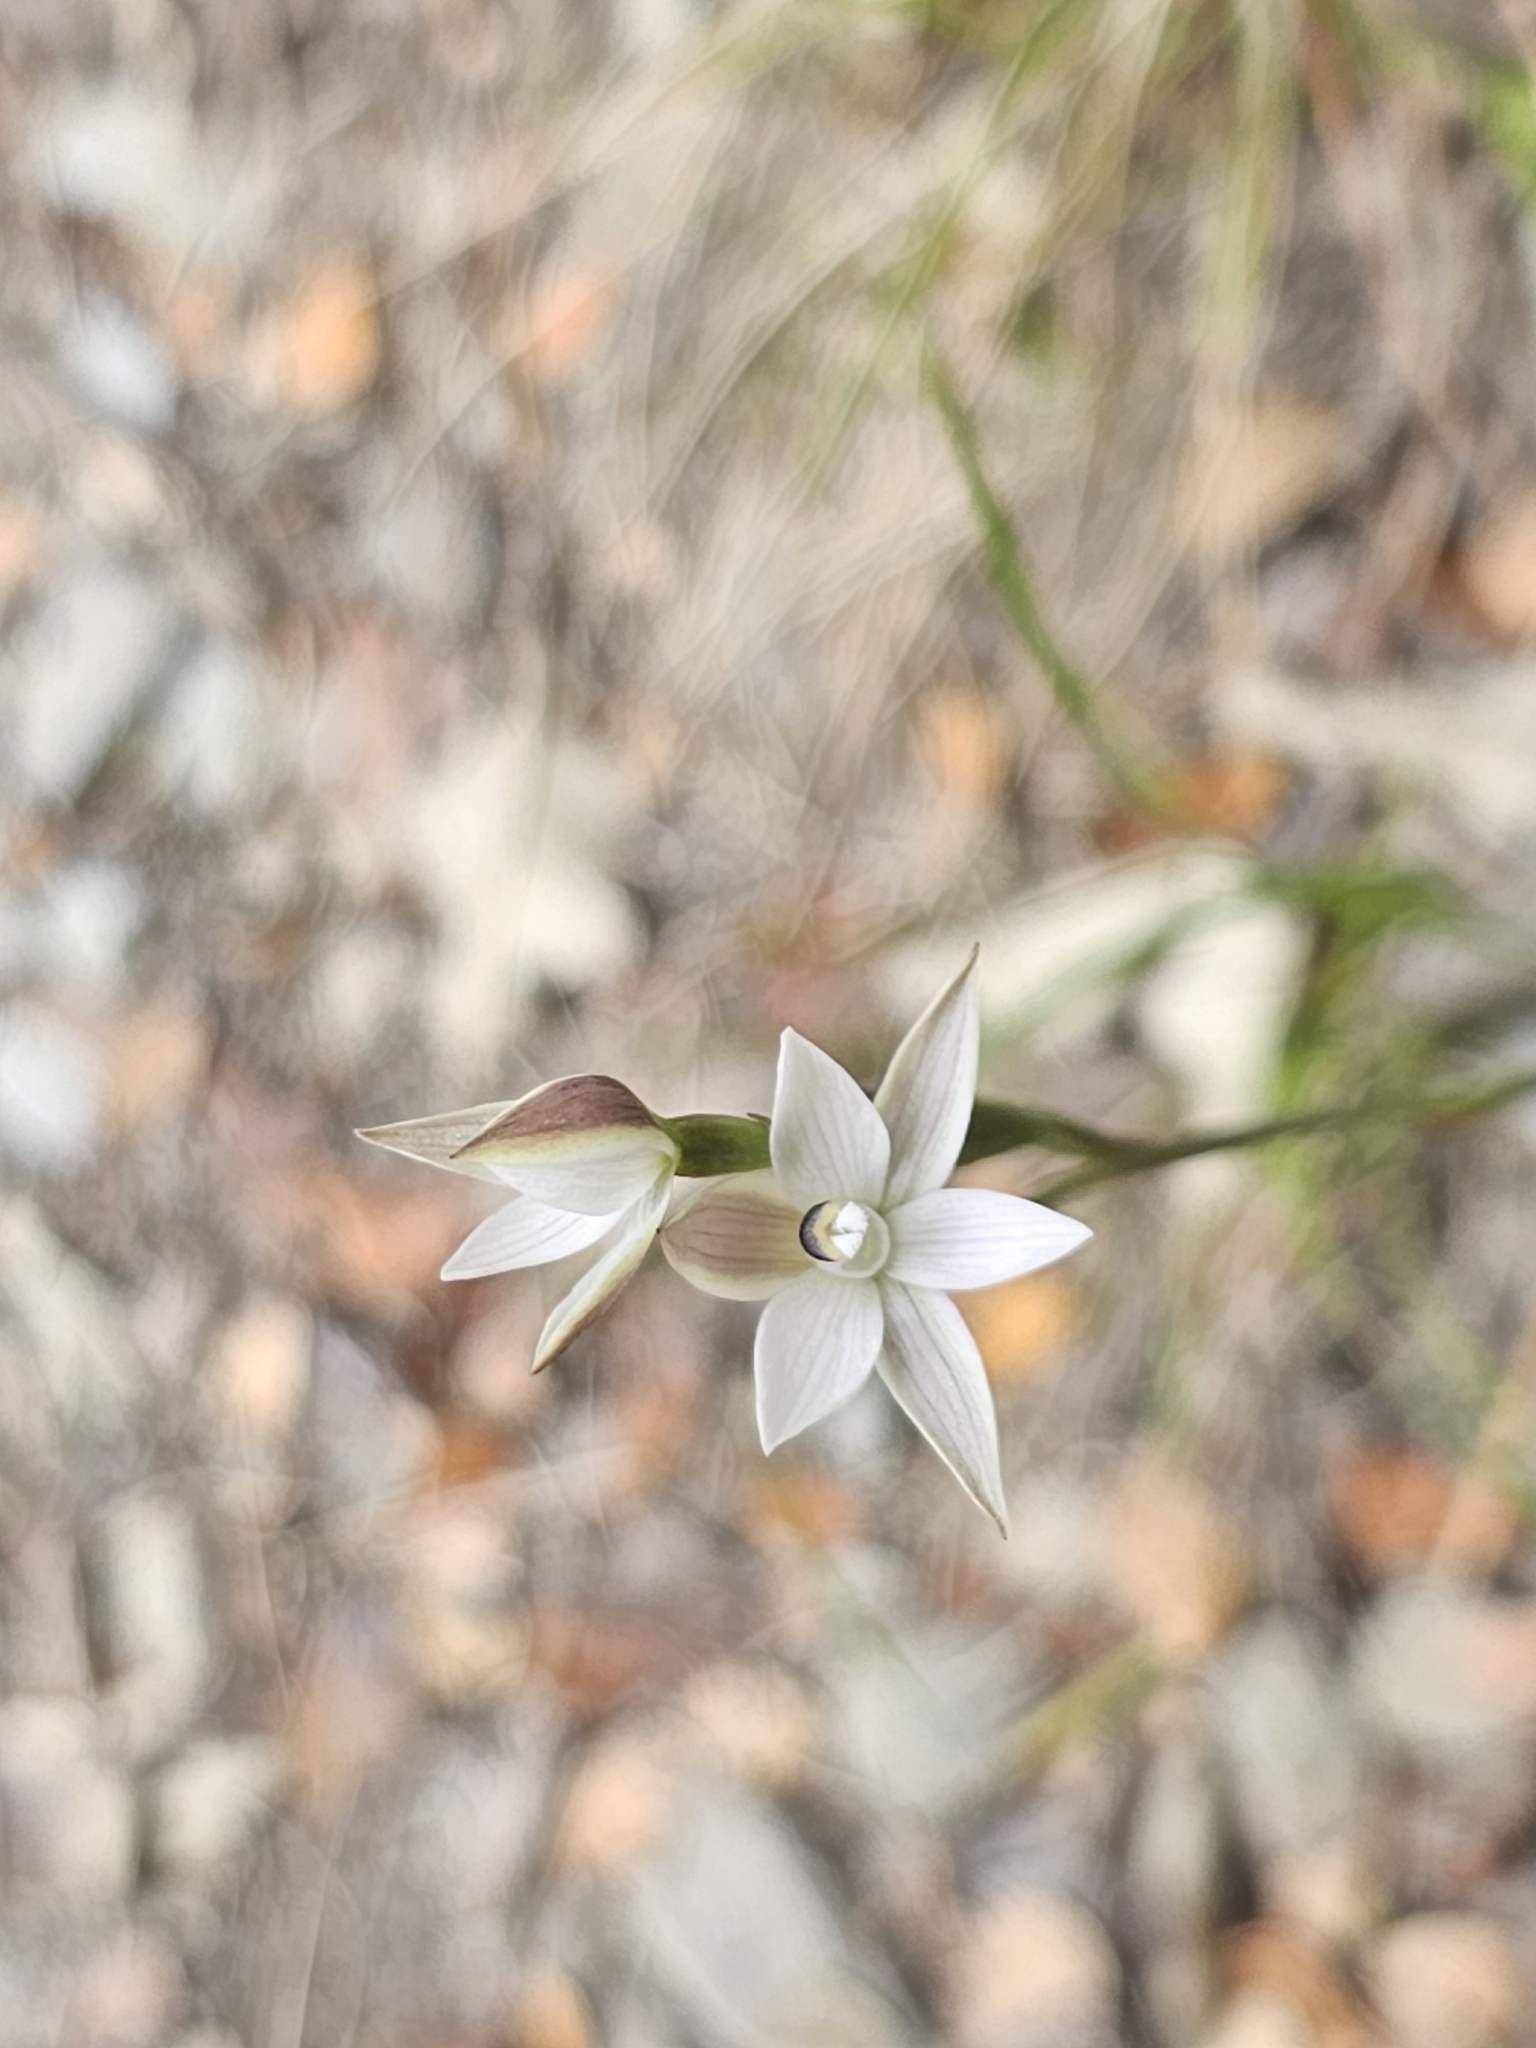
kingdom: Plantae
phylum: Tracheophyta
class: Liliopsida
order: Asparagales
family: Orchidaceae
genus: Thelymitra
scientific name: Thelymitra longifolia
